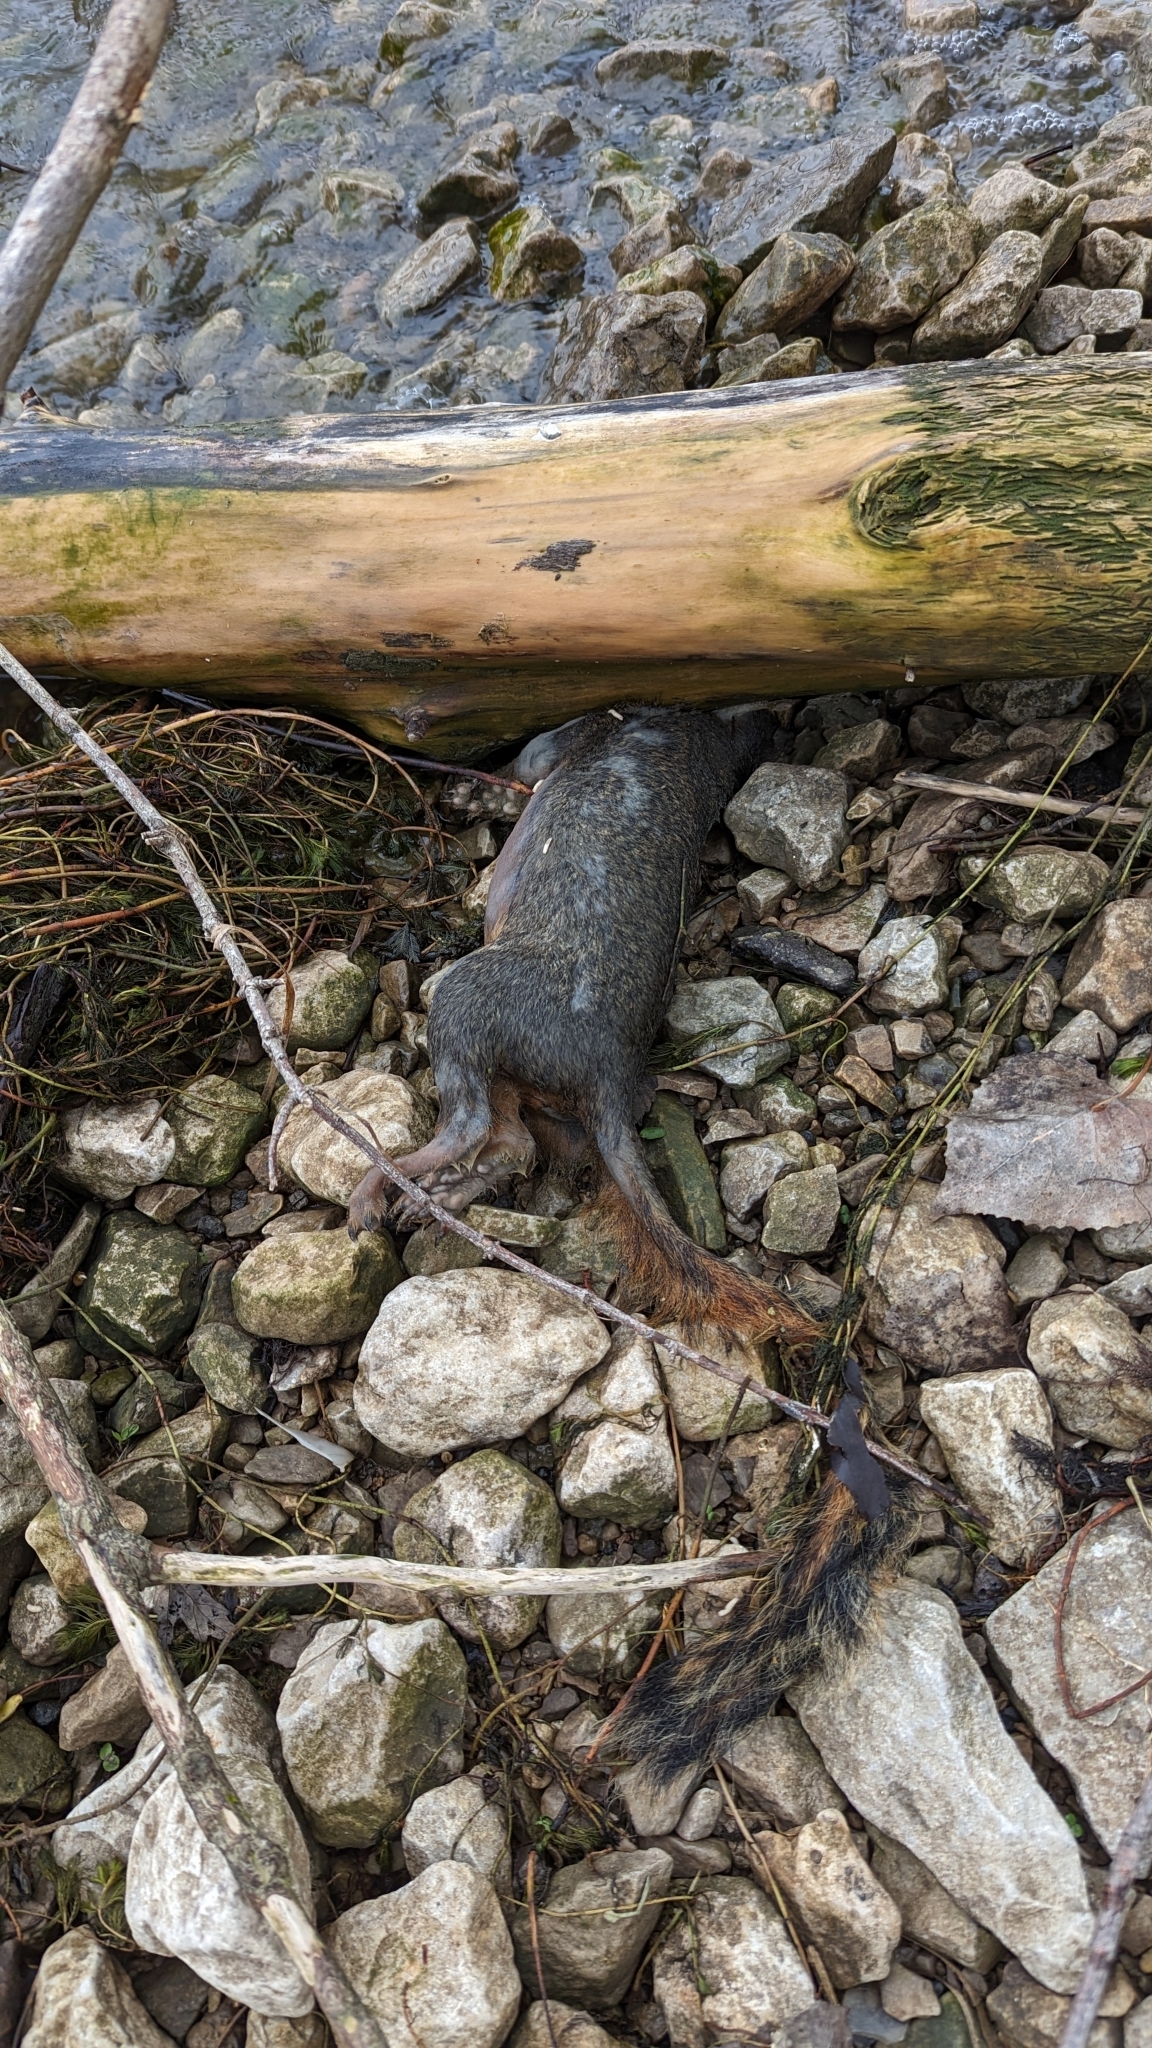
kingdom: Animalia
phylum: Chordata
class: Mammalia
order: Rodentia
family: Sciuridae
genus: Sciurus
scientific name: Sciurus niger
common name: Fox squirrel
